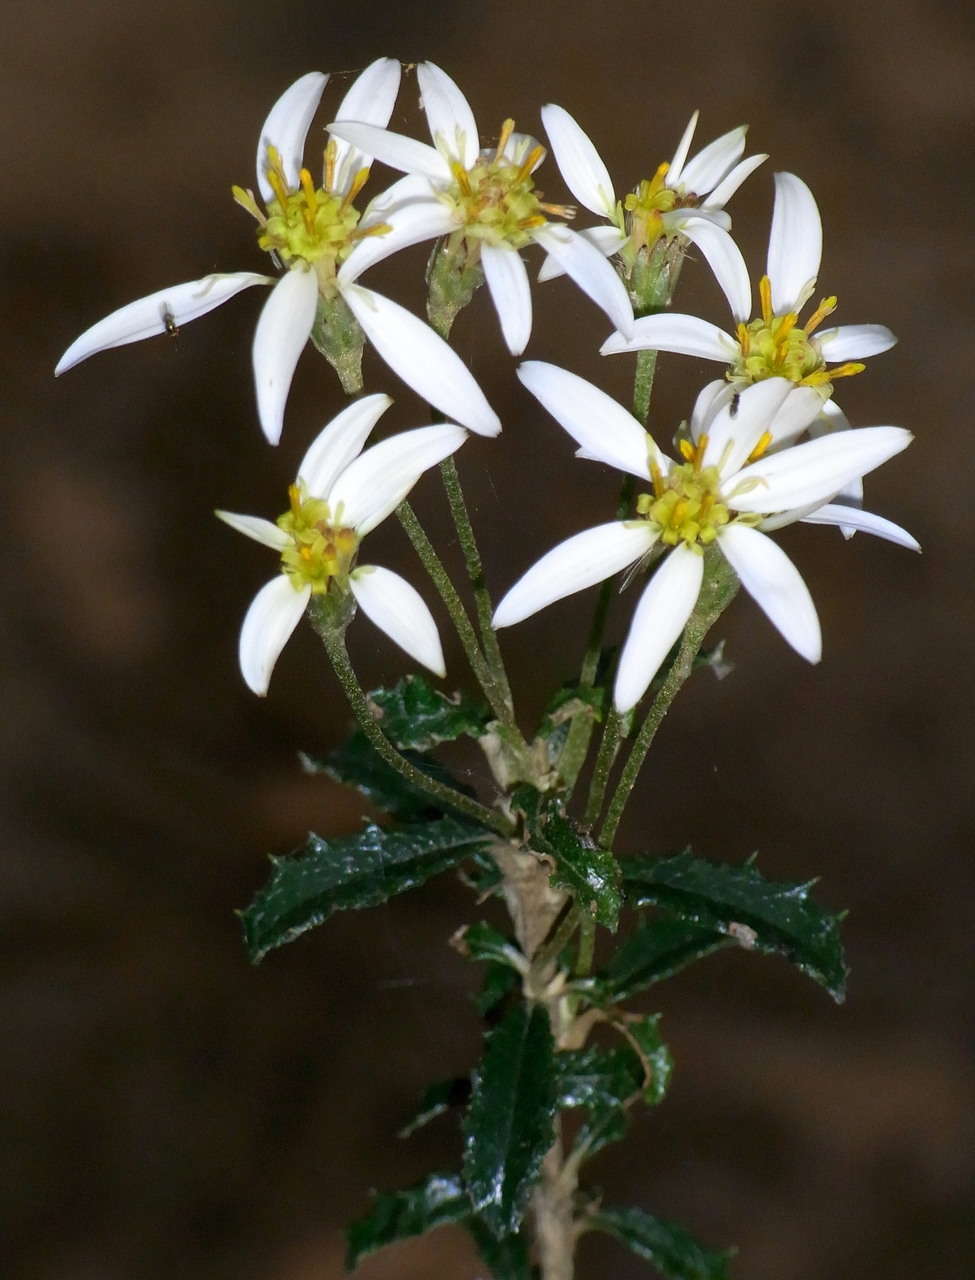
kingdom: Plantae
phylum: Tracheophyta
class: Magnoliopsida
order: Asterales
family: Asteraceae
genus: Olearia
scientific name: Olearia erubescens
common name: Moth daisybush
